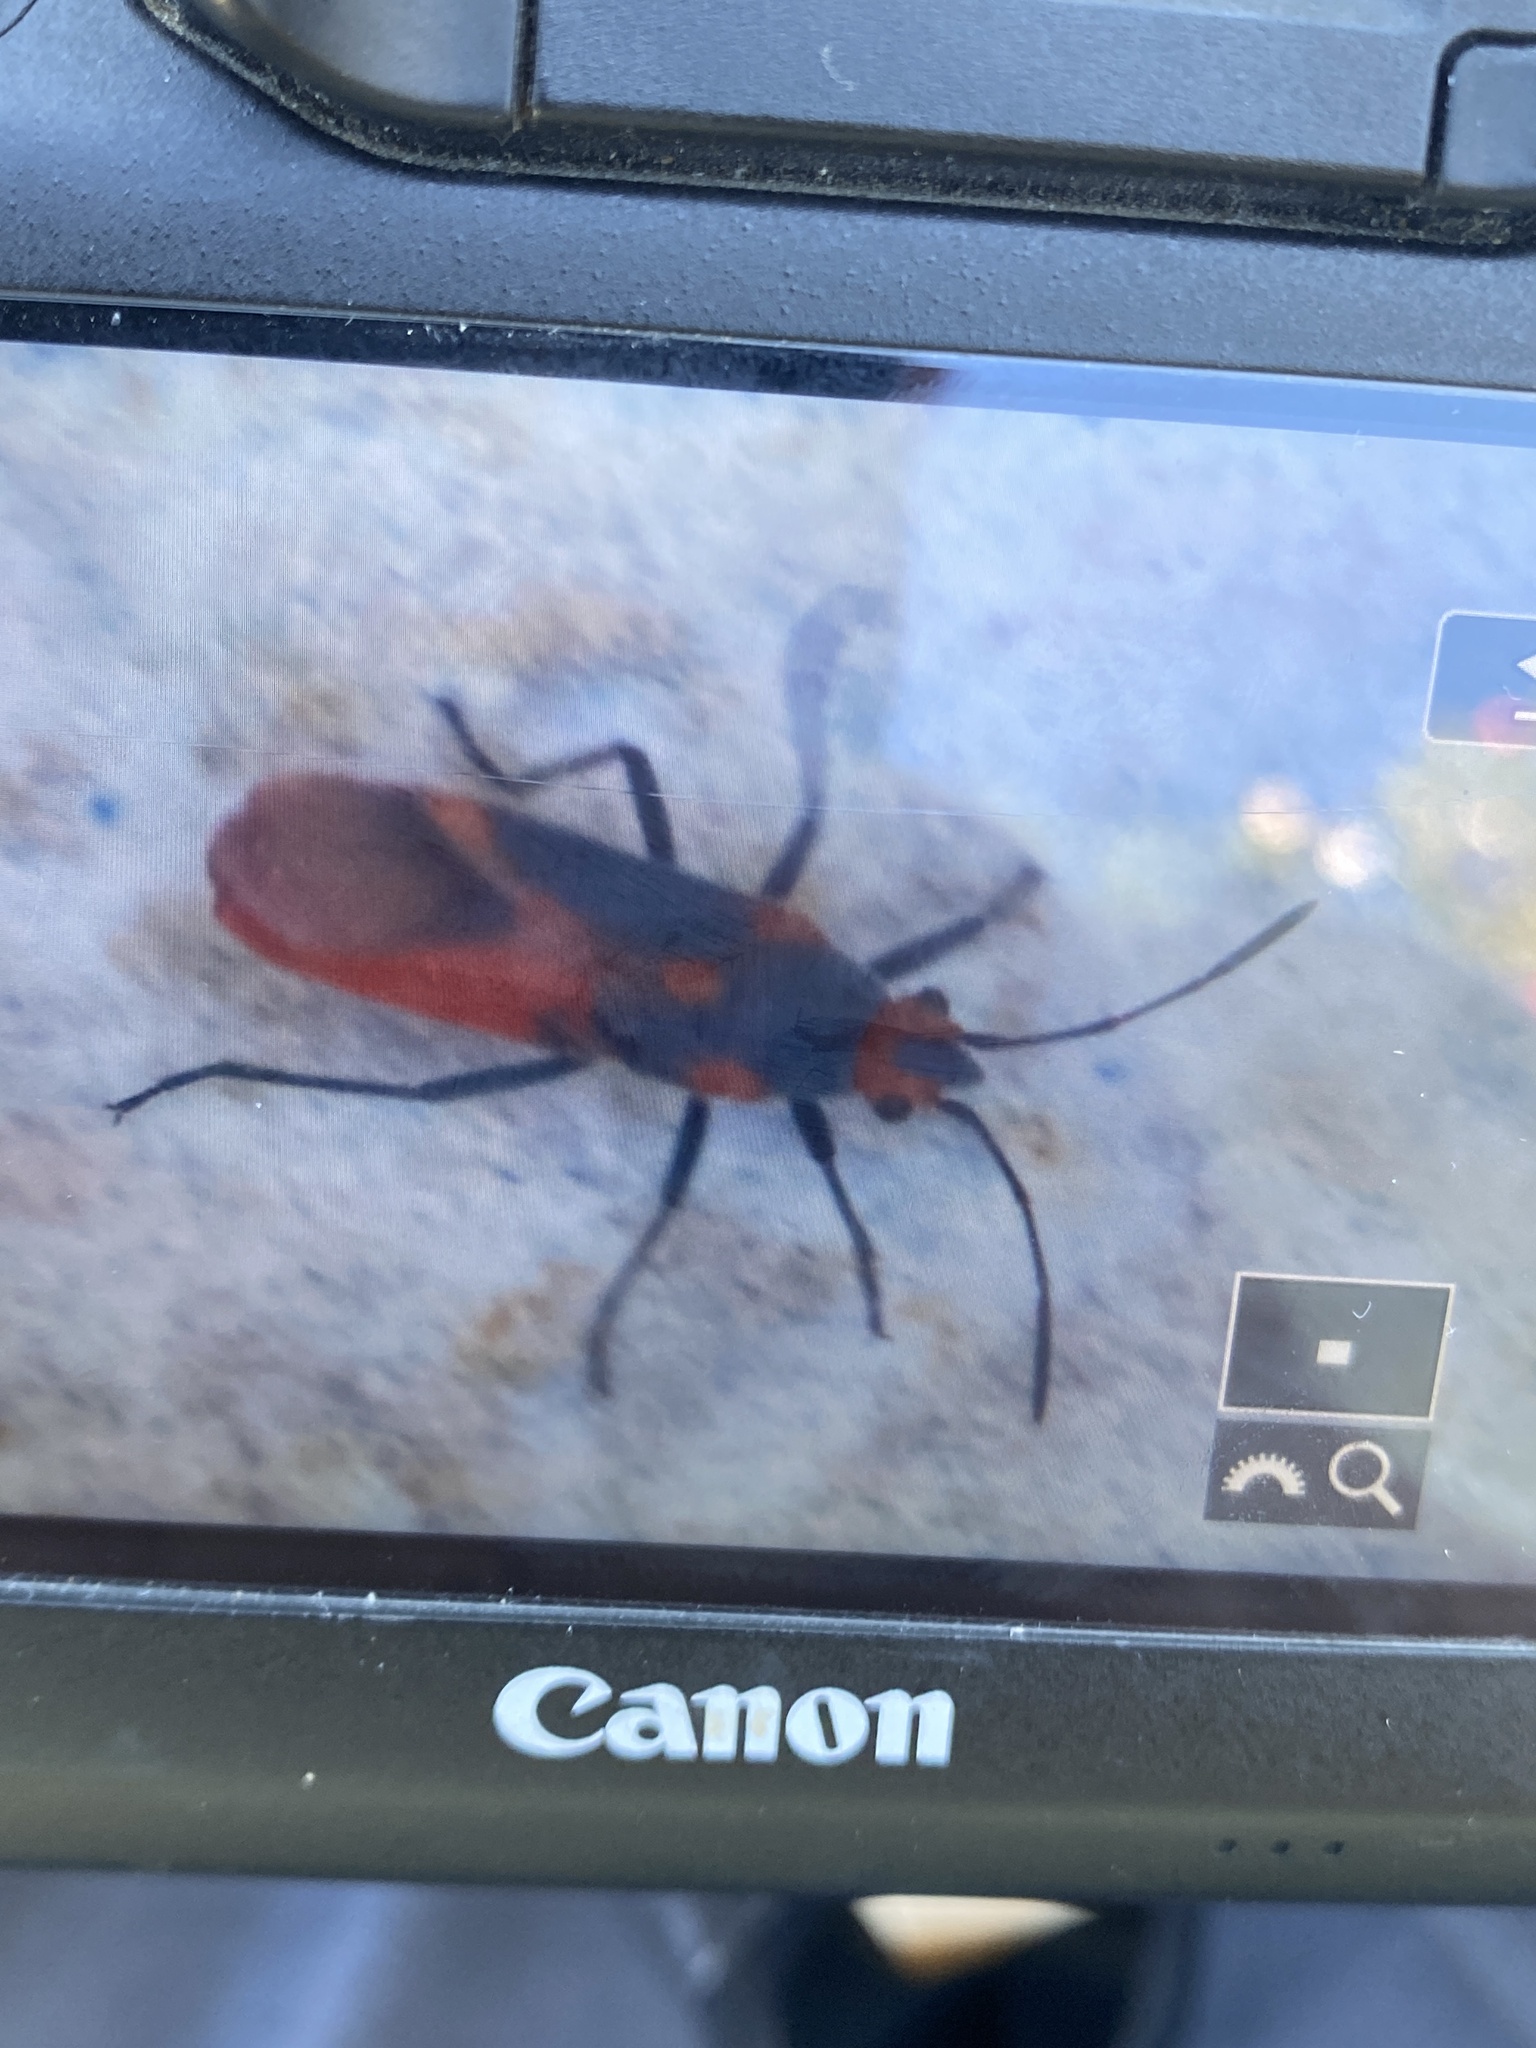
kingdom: Animalia
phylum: Arthropoda
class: Insecta
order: Hemiptera
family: Lygaeidae
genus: Caenocoris
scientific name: Caenocoris nerii
